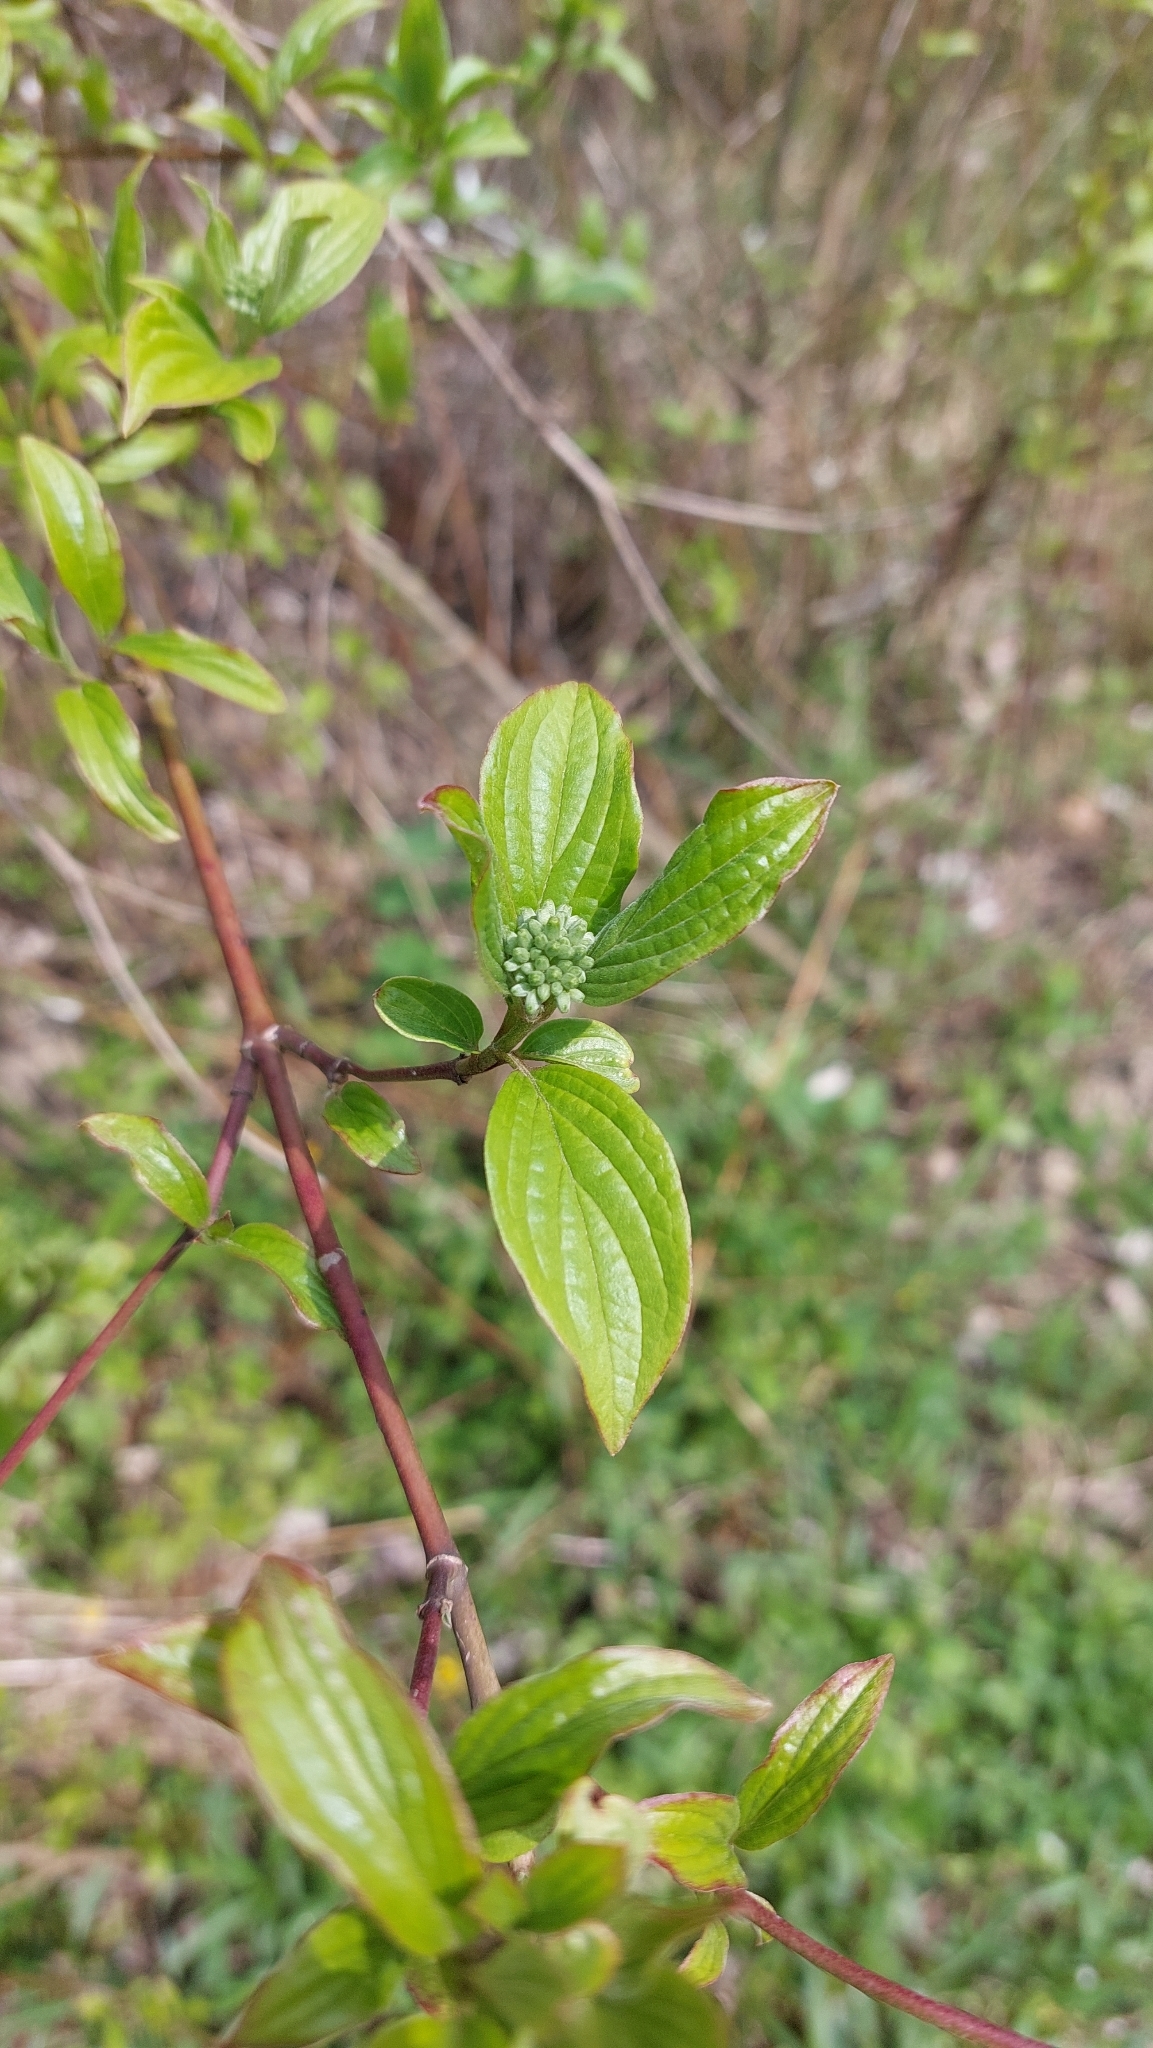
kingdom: Plantae
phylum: Tracheophyta
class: Magnoliopsida
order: Cornales
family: Cornaceae
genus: Cornus
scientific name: Cornus sanguinea
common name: Dogwood
